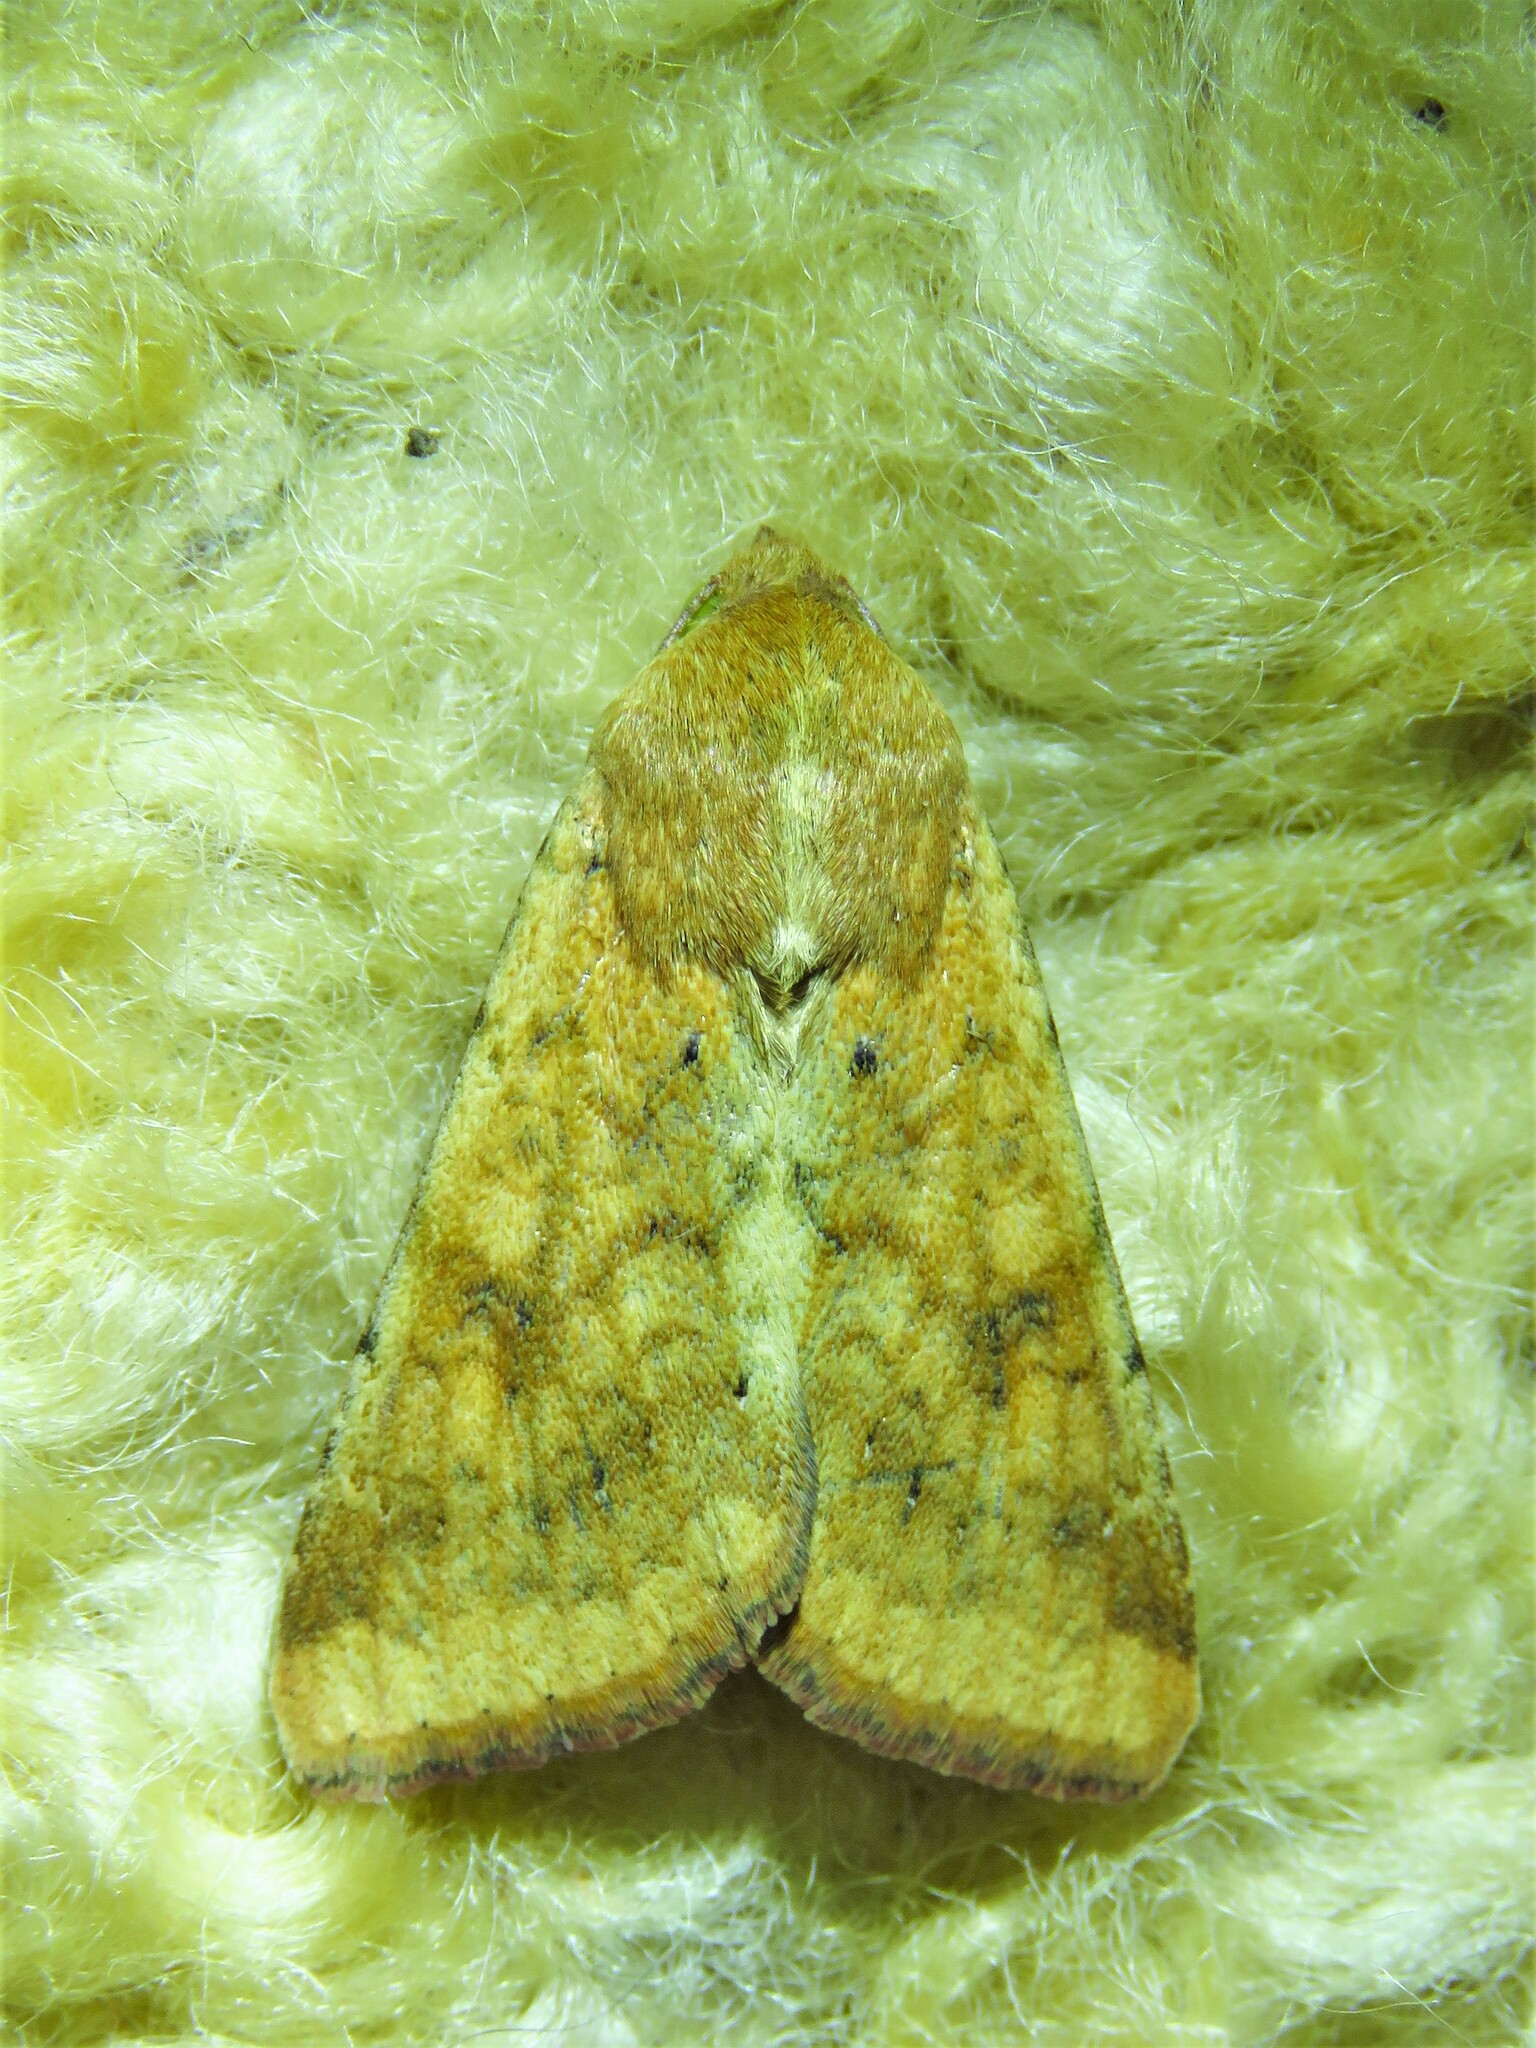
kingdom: Animalia
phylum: Arthropoda
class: Insecta
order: Lepidoptera
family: Noctuidae
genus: Helicoverpa
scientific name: Helicoverpa zea
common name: Bollworm
